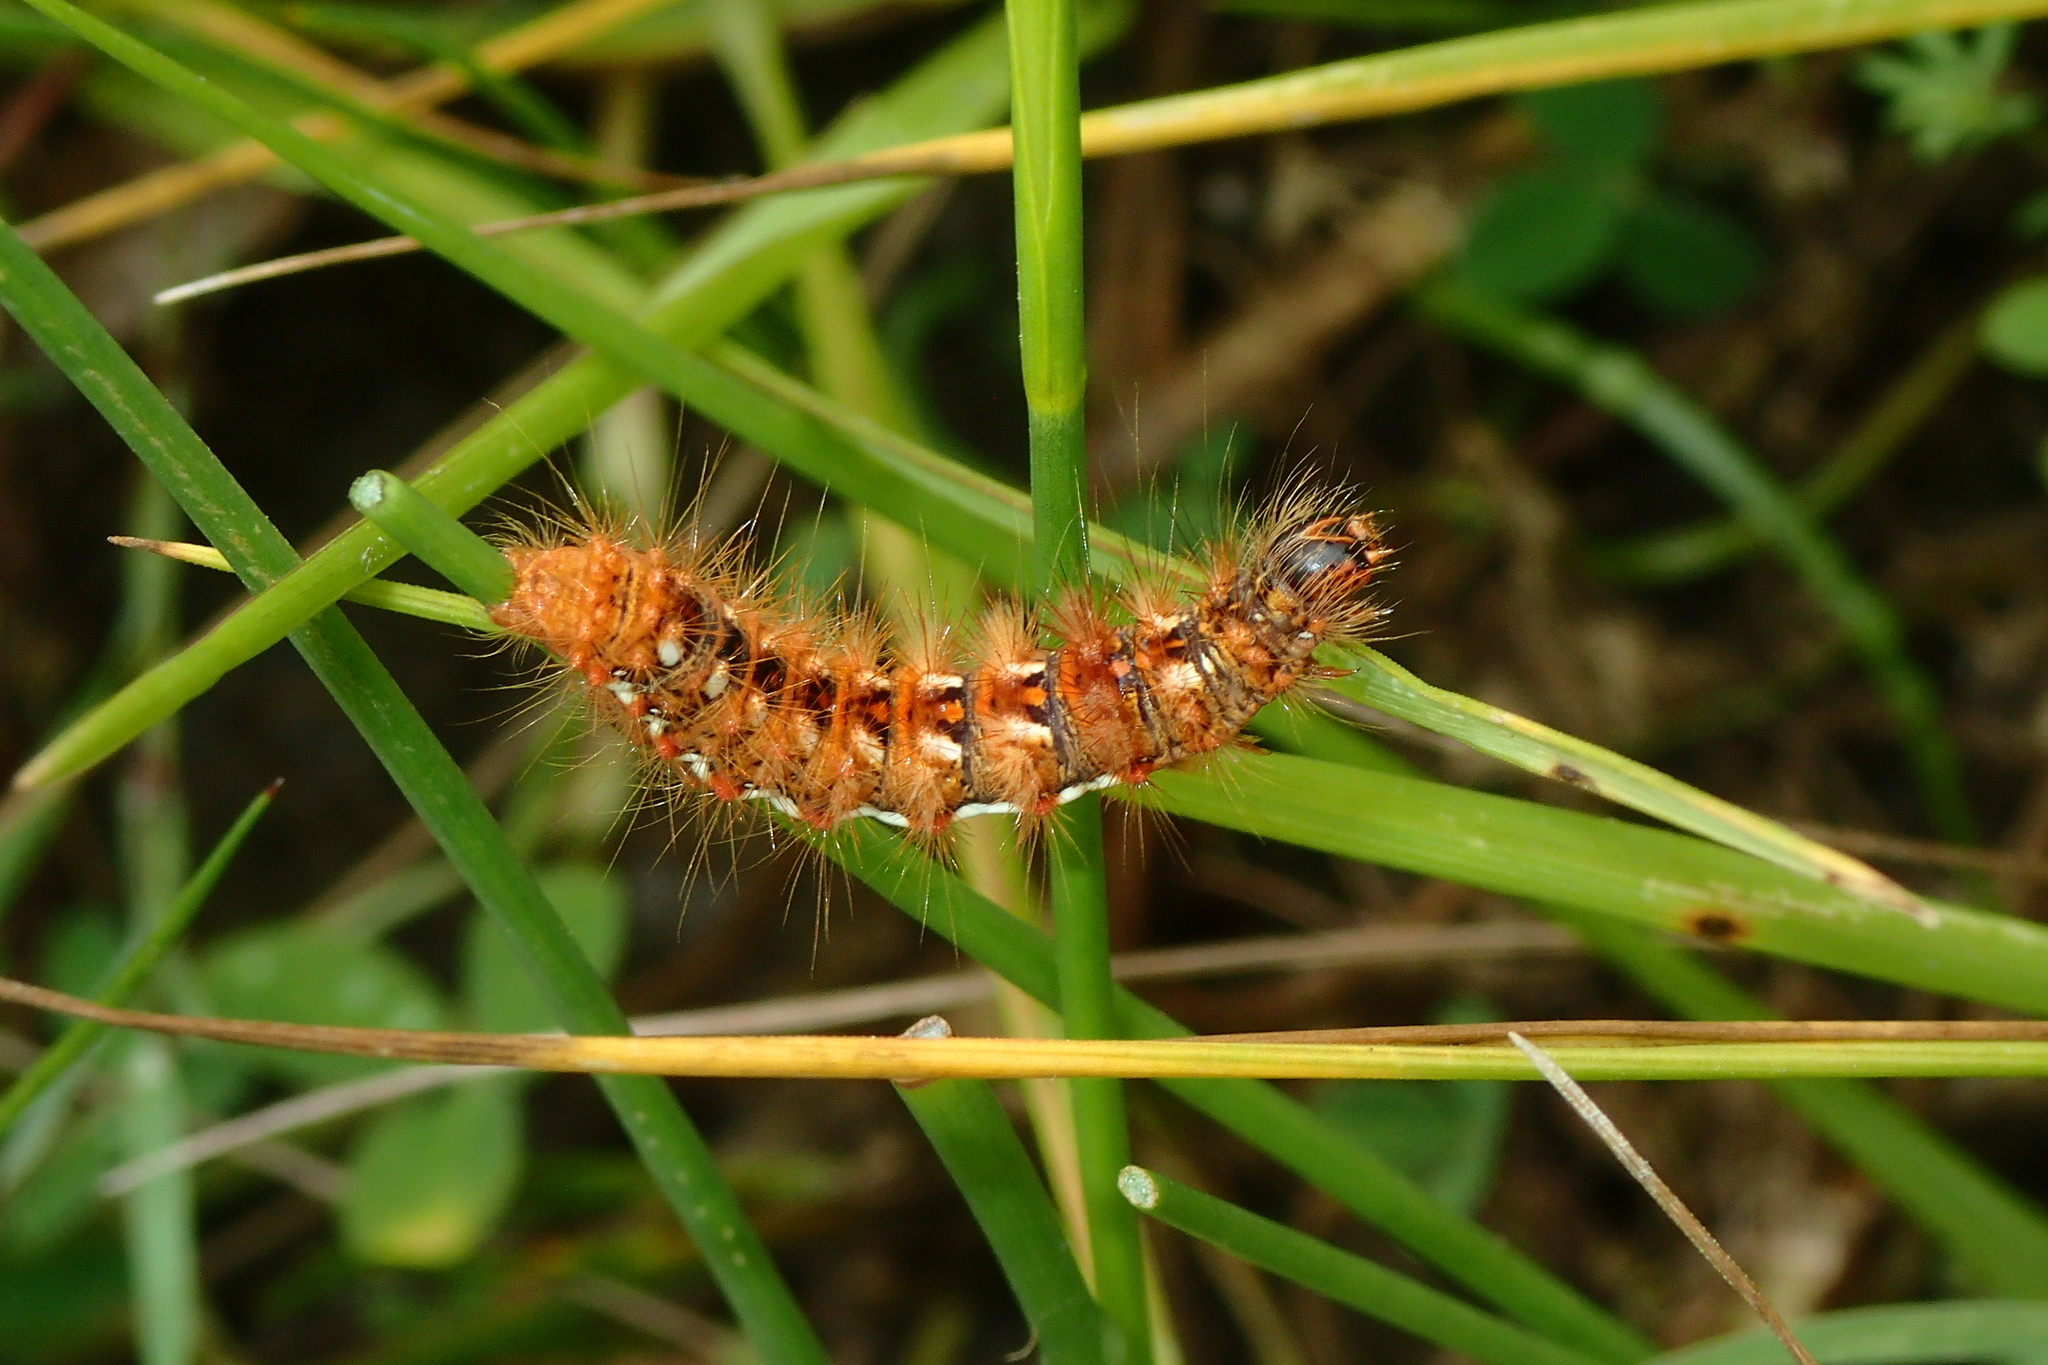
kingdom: Animalia
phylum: Arthropoda
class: Insecta
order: Lepidoptera
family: Noctuidae
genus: Acronicta
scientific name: Acronicta rumicis
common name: Knot grass
